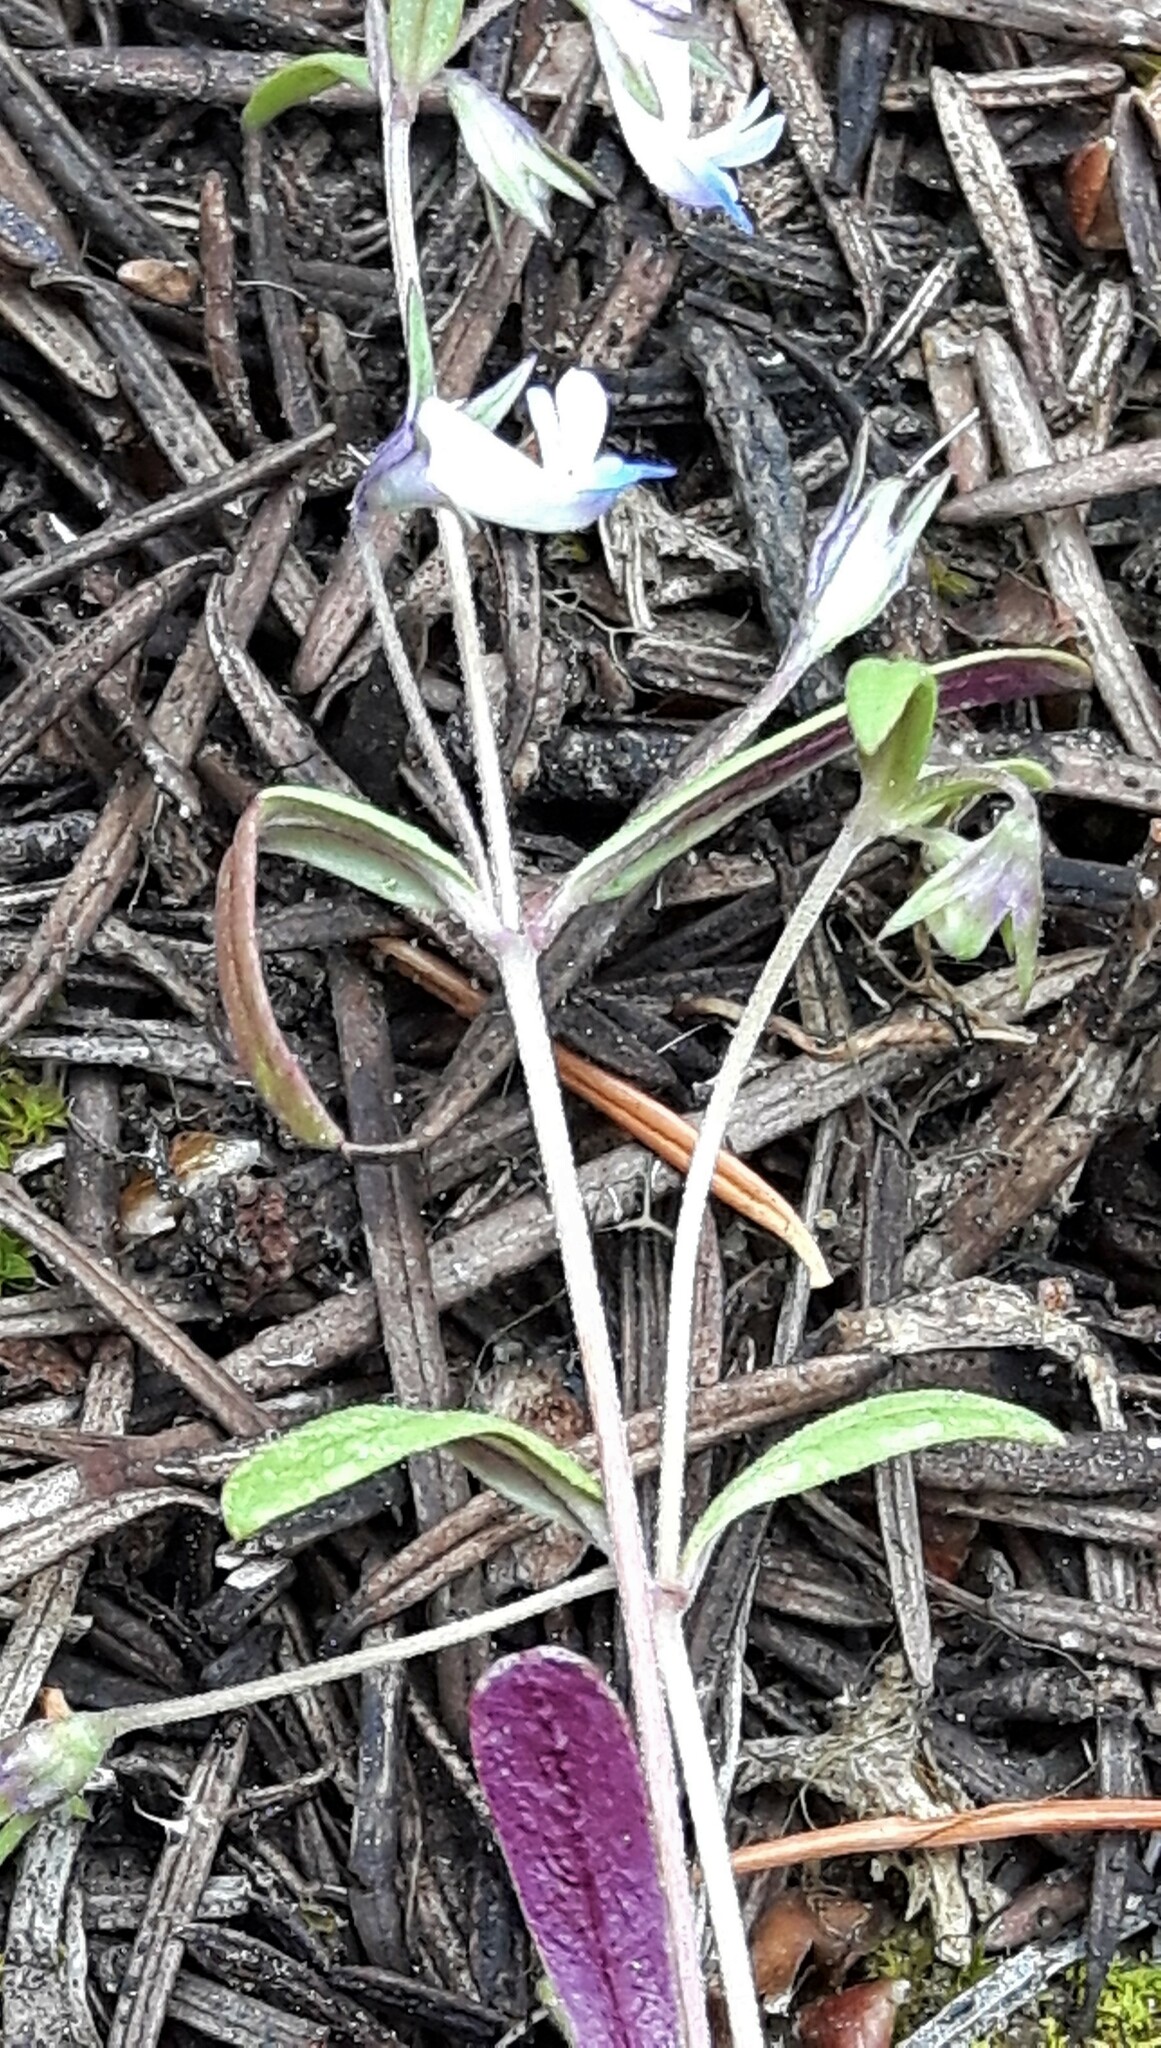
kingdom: Plantae
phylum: Tracheophyta
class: Magnoliopsida
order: Lamiales
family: Plantaginaceae
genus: Collinsia
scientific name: Collinsia parviflora
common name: Blue-lips
